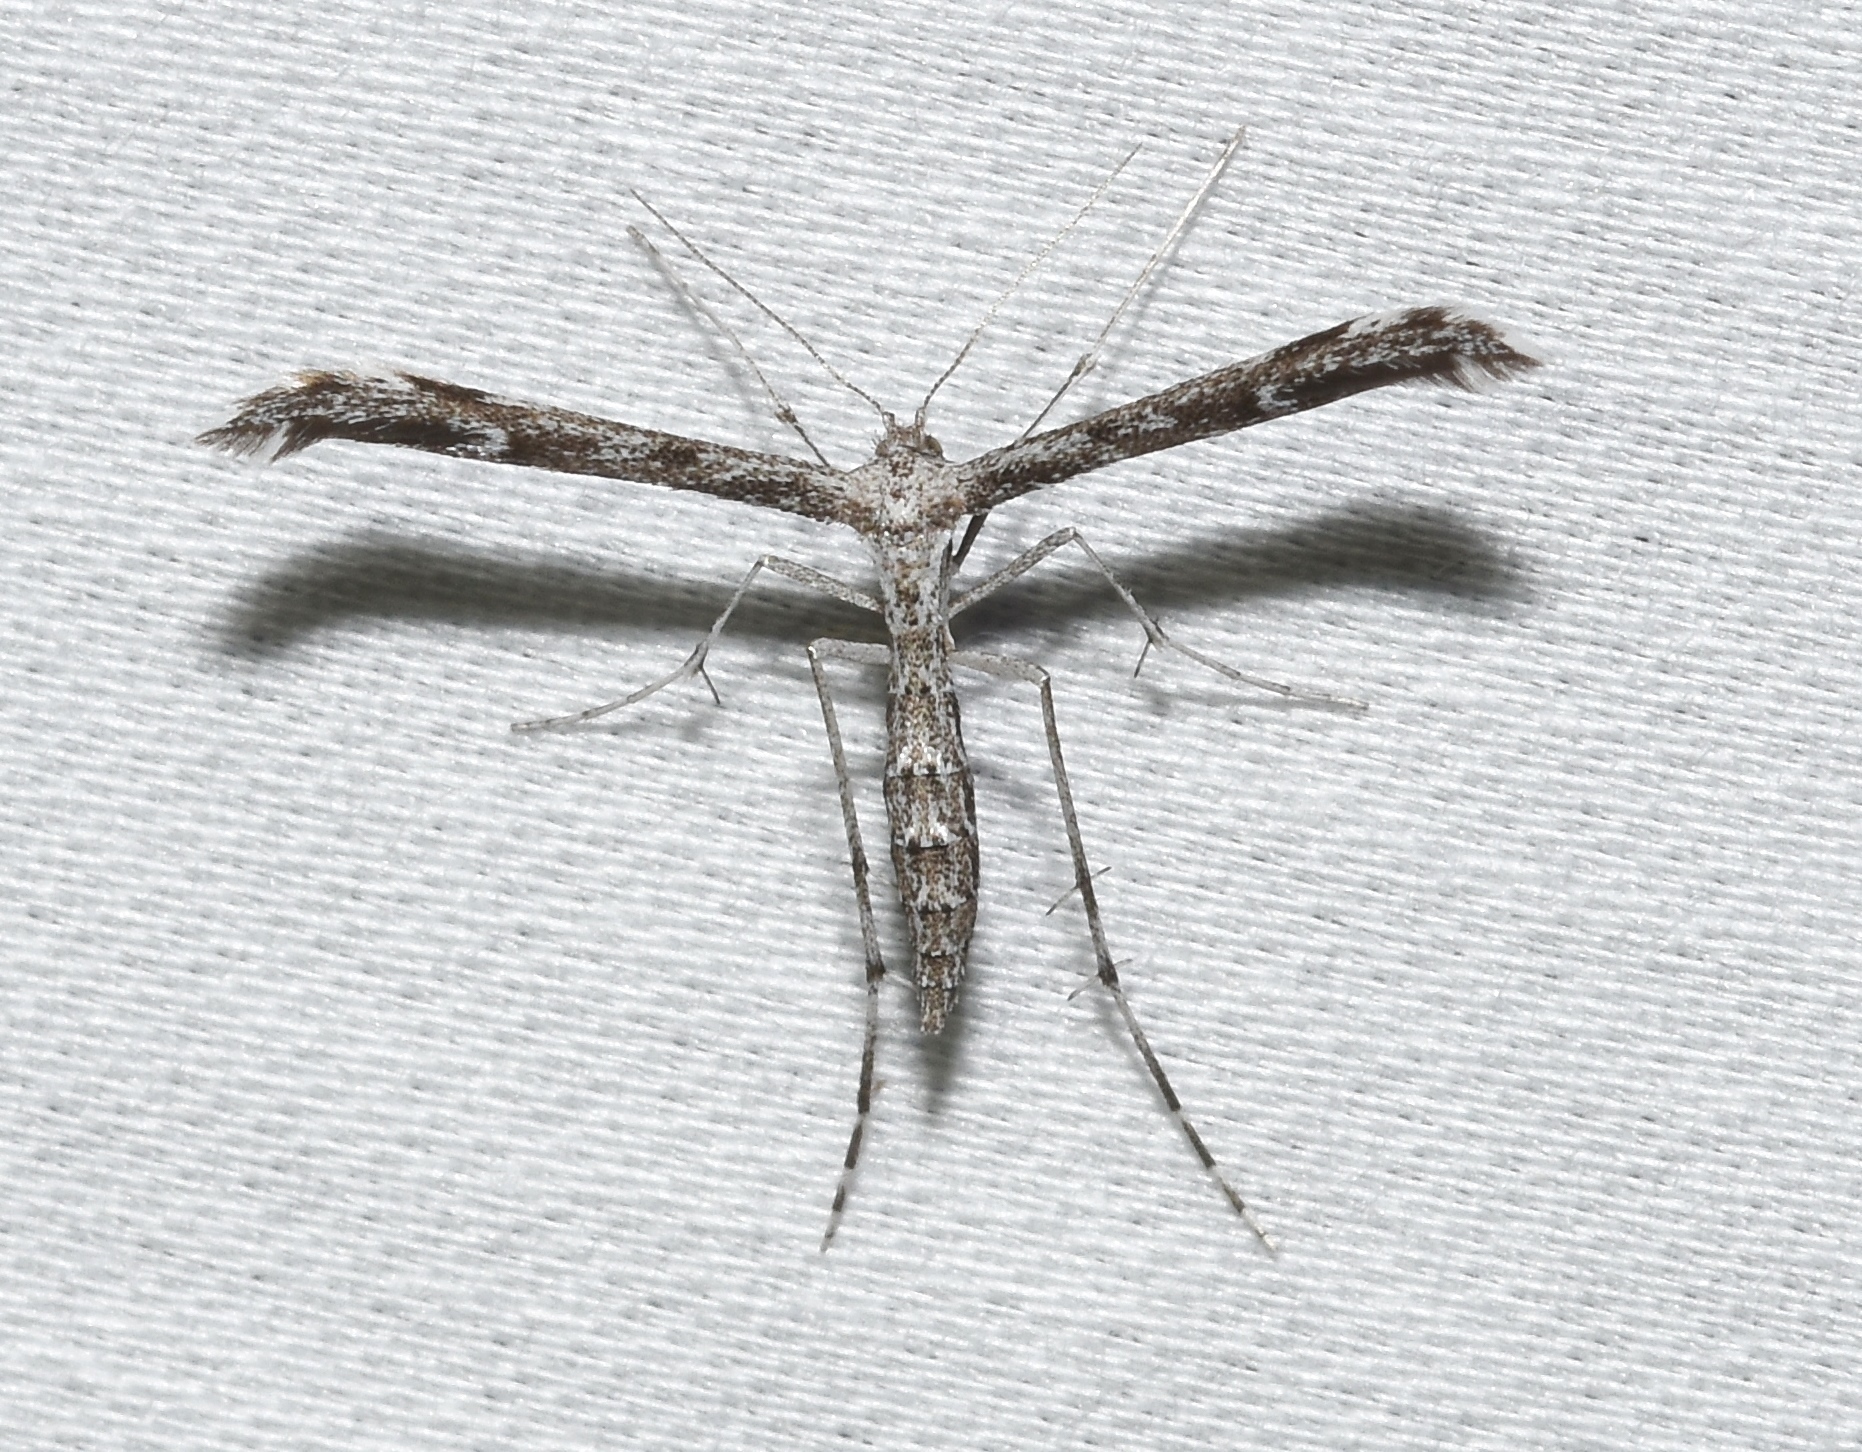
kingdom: Animalia
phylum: Arthropoda
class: Insecta
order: Lepidoptera
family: Pterophoridae
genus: Hellinsia
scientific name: Hellinsia inquinatus
